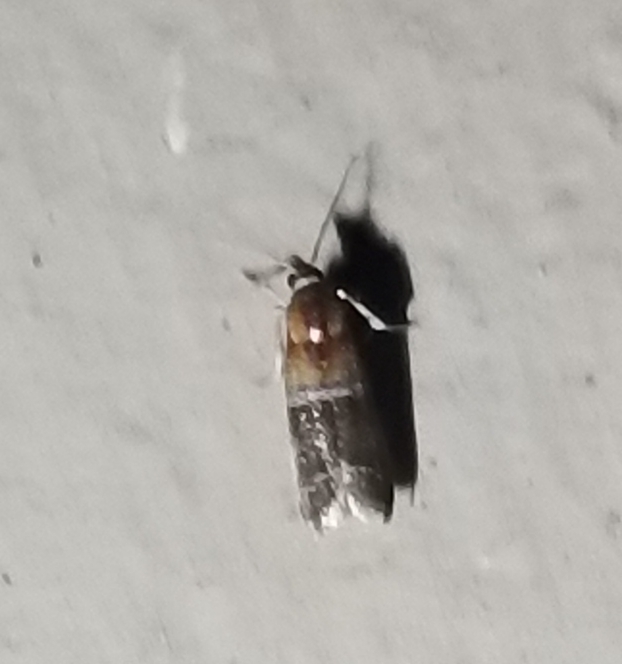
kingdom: Animalia
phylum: Arthropoda
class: Insecta
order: Lepidoptera
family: Pyralidae
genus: Moodna
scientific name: Moodna pallidostrinella
